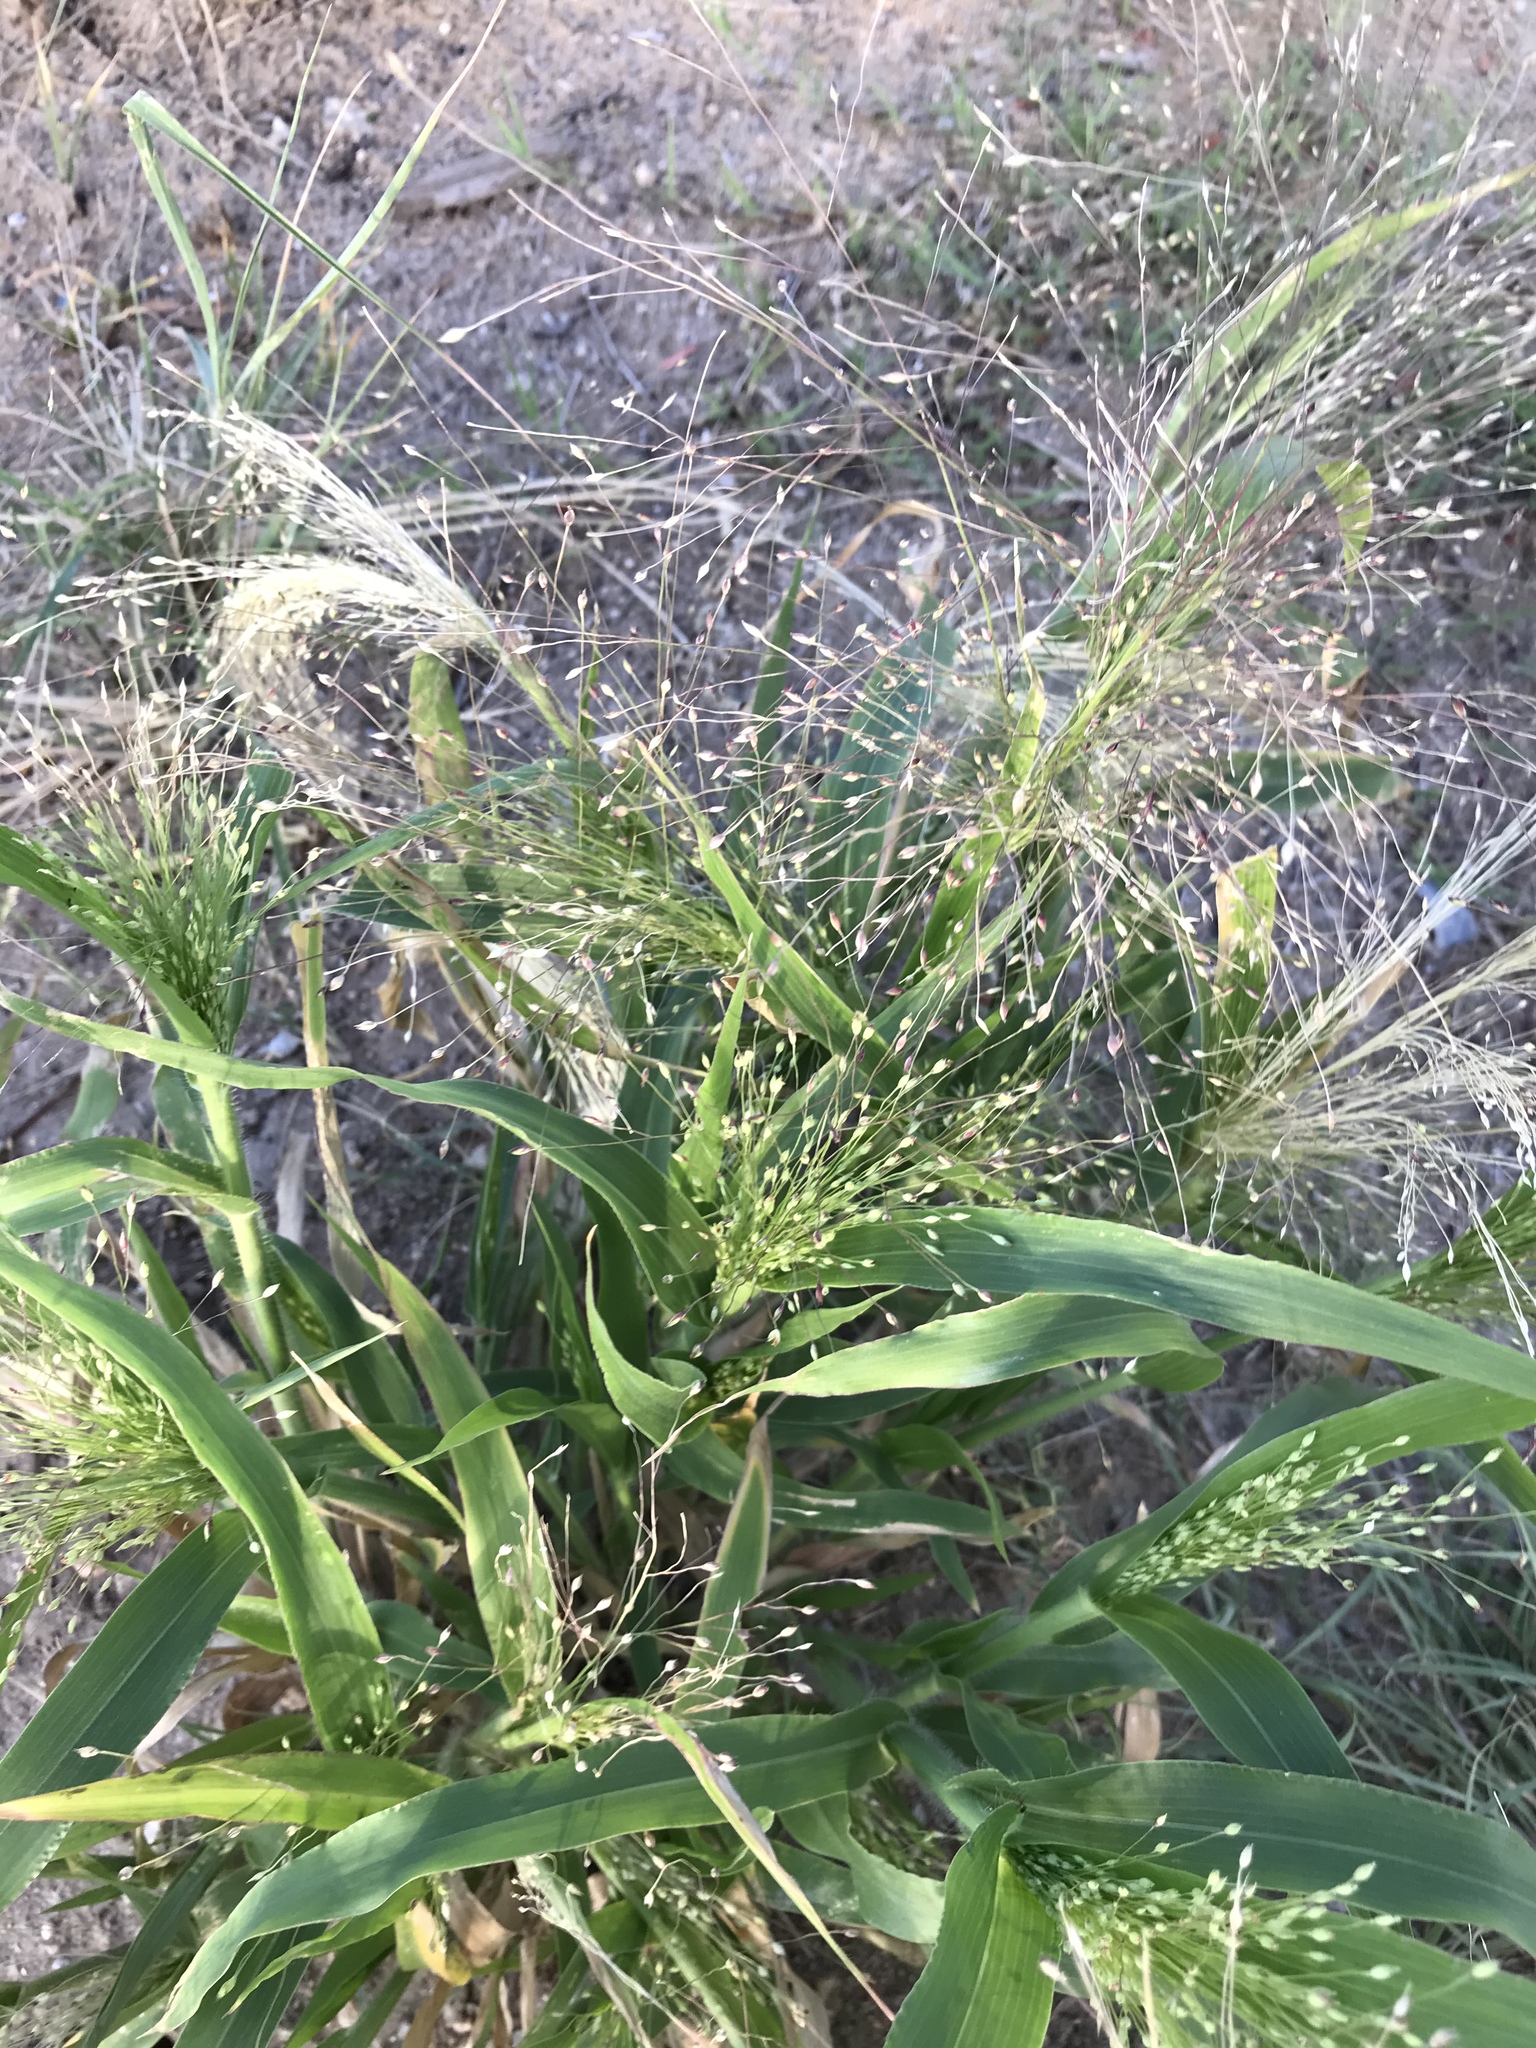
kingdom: Plantae
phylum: Tracheophyta
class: Liliopsida
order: Poales
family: Poaceae
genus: Panicum
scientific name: Panicum capillare
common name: Witch-grass
